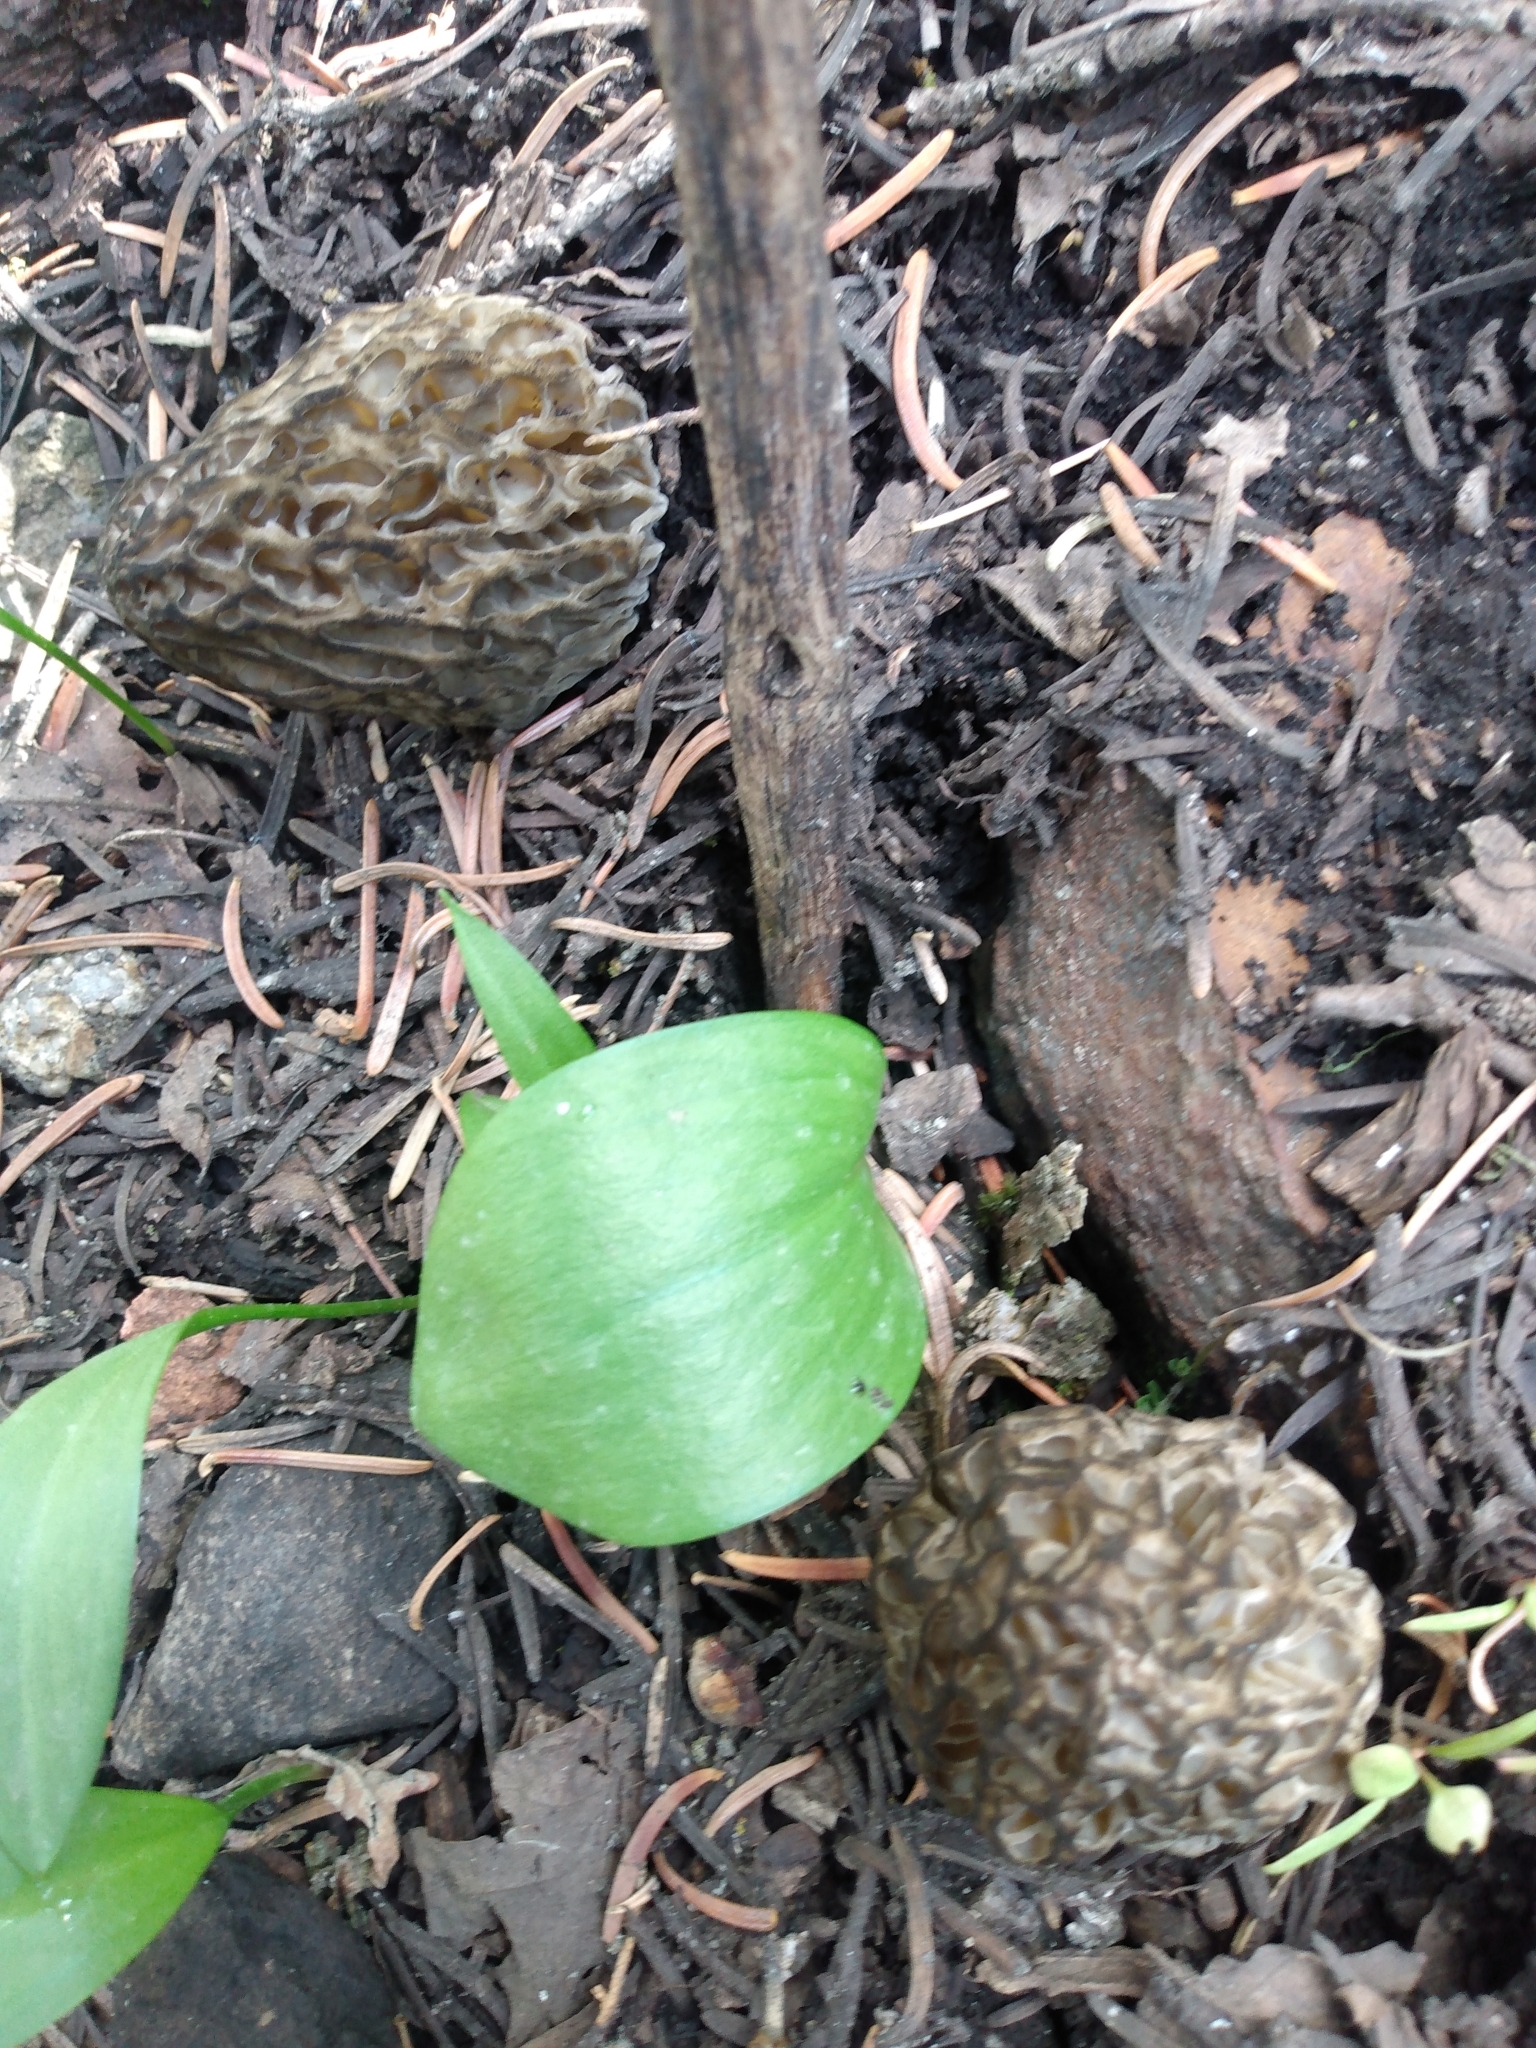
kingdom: Fungi
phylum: Ascomycota
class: Pezizomycetes
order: Pezizales
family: Morchellaceae
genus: Morchella
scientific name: Morchella snyderi
